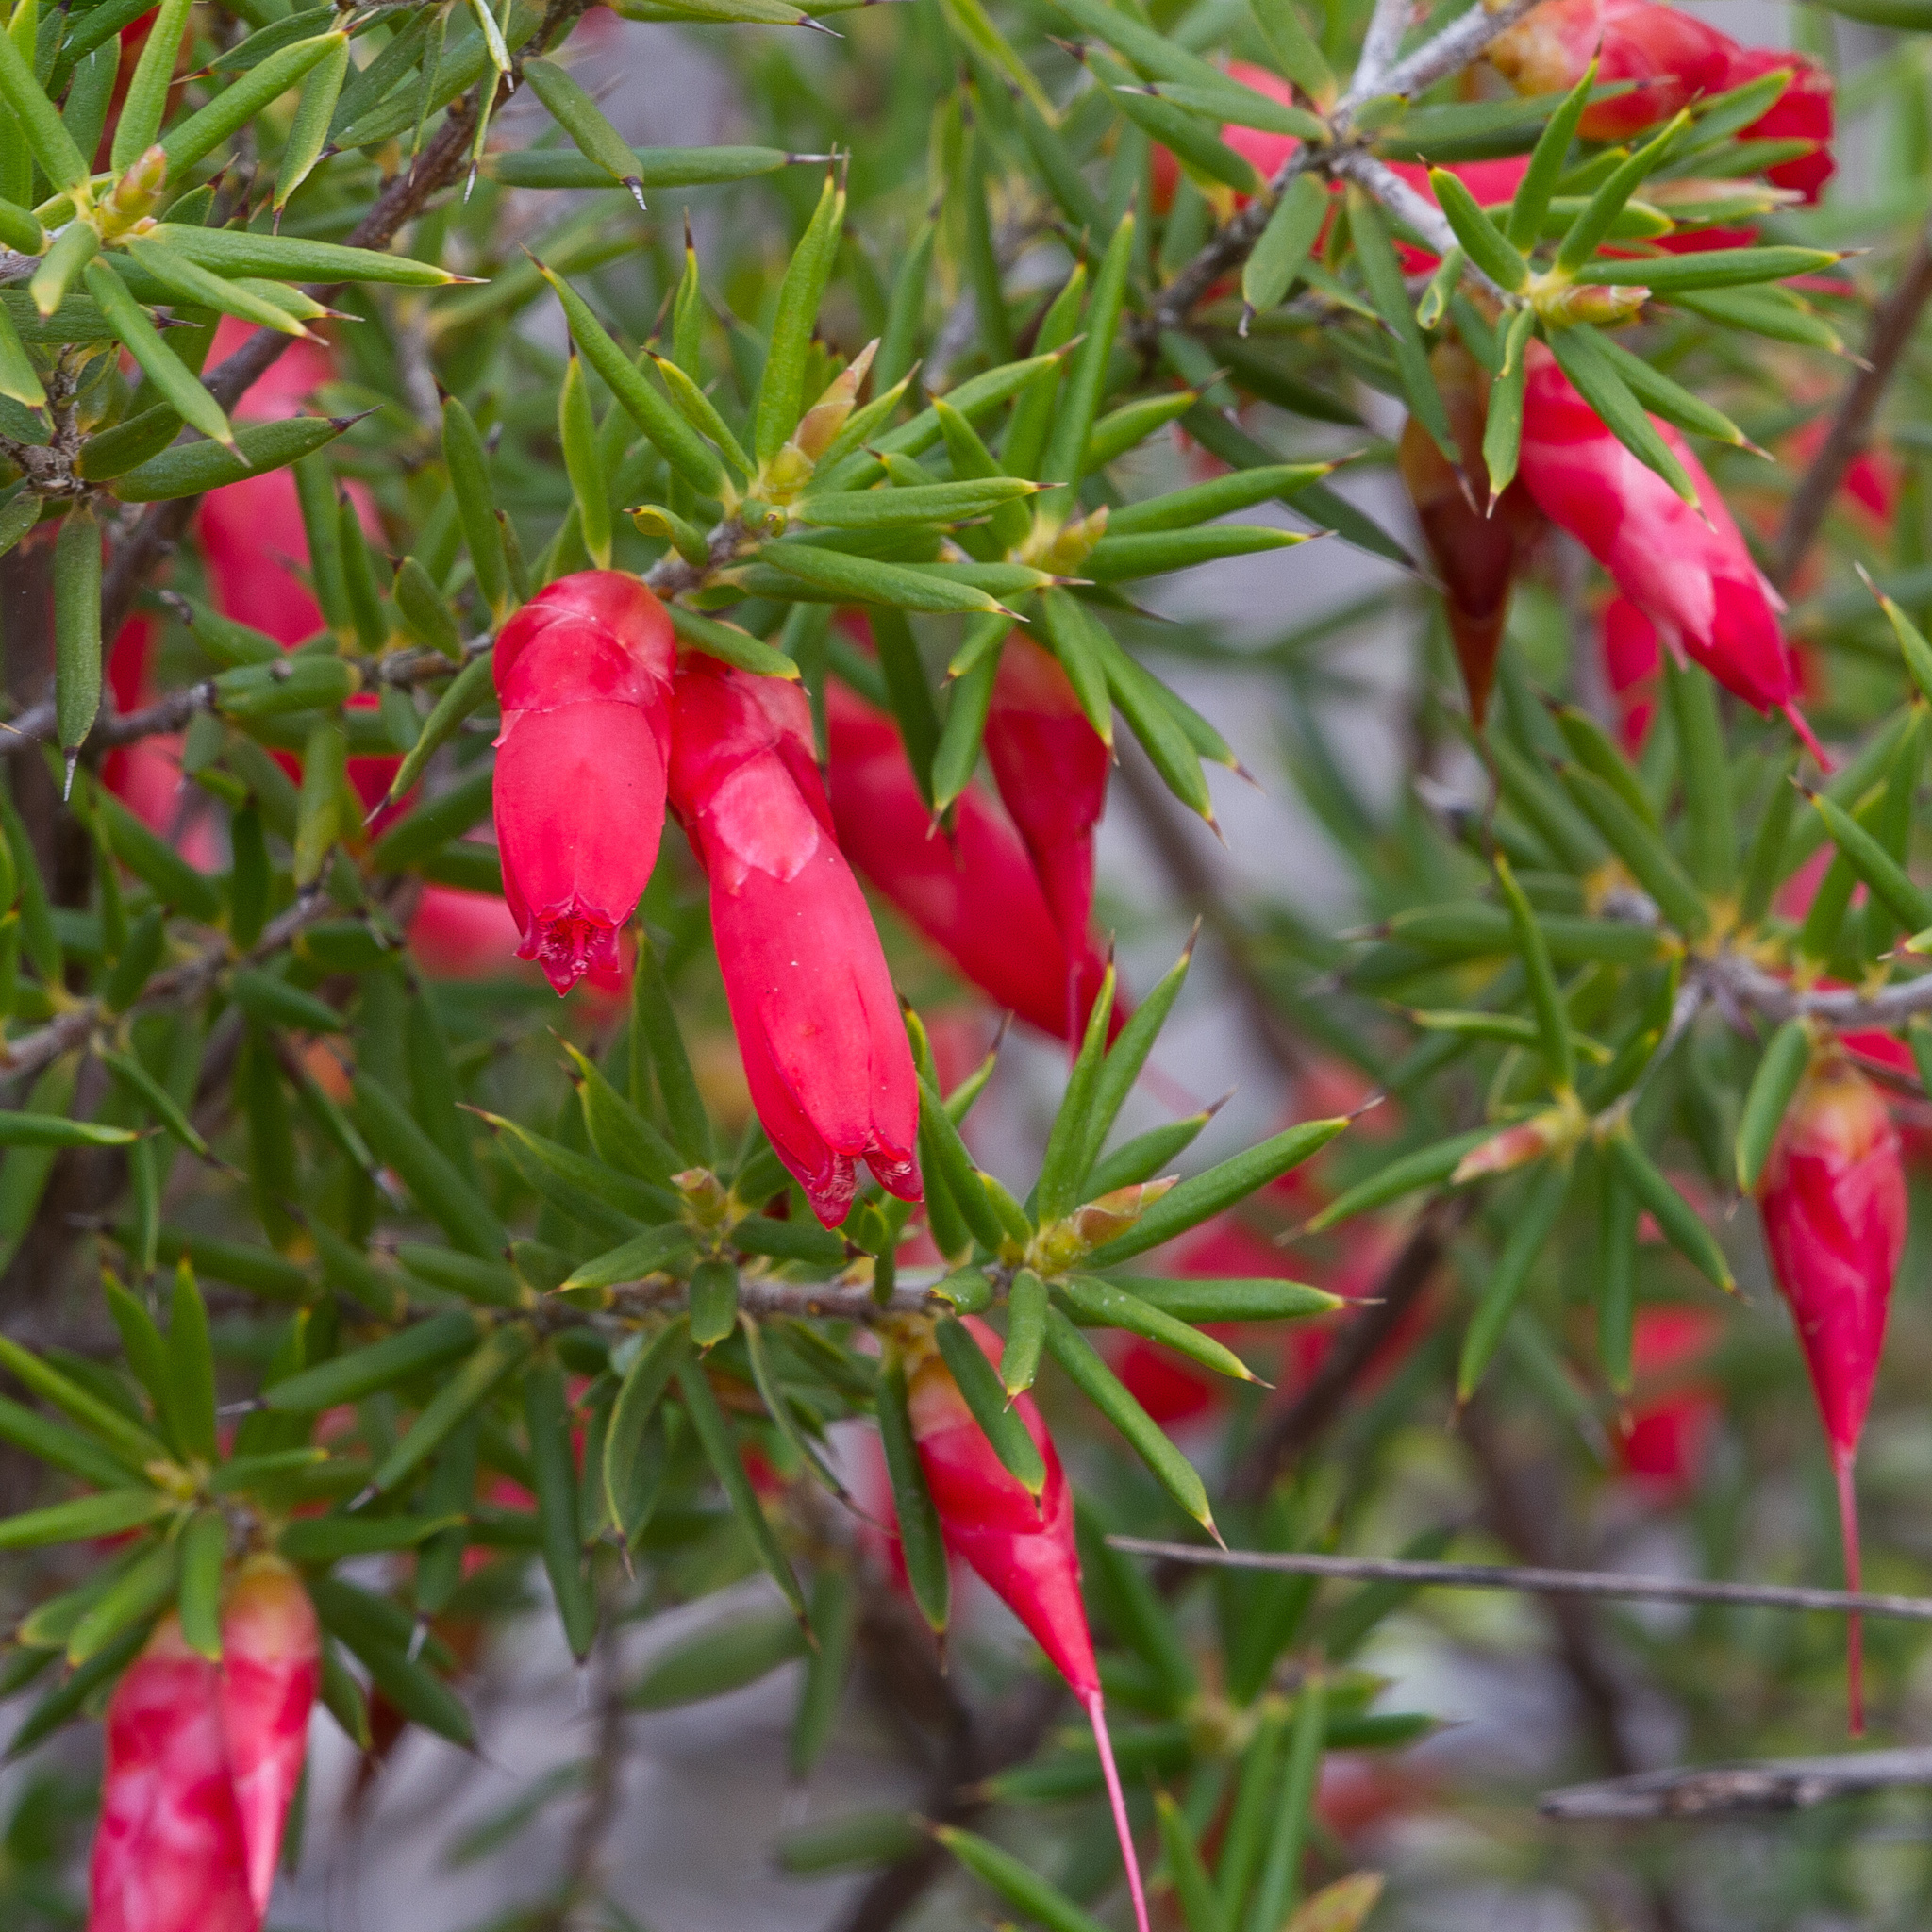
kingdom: Plantae
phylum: Tracheophyta
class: Magnoliopsida
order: Ericales
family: Ericaceae
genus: Stenanthera
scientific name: Stenanthera conostephioides
